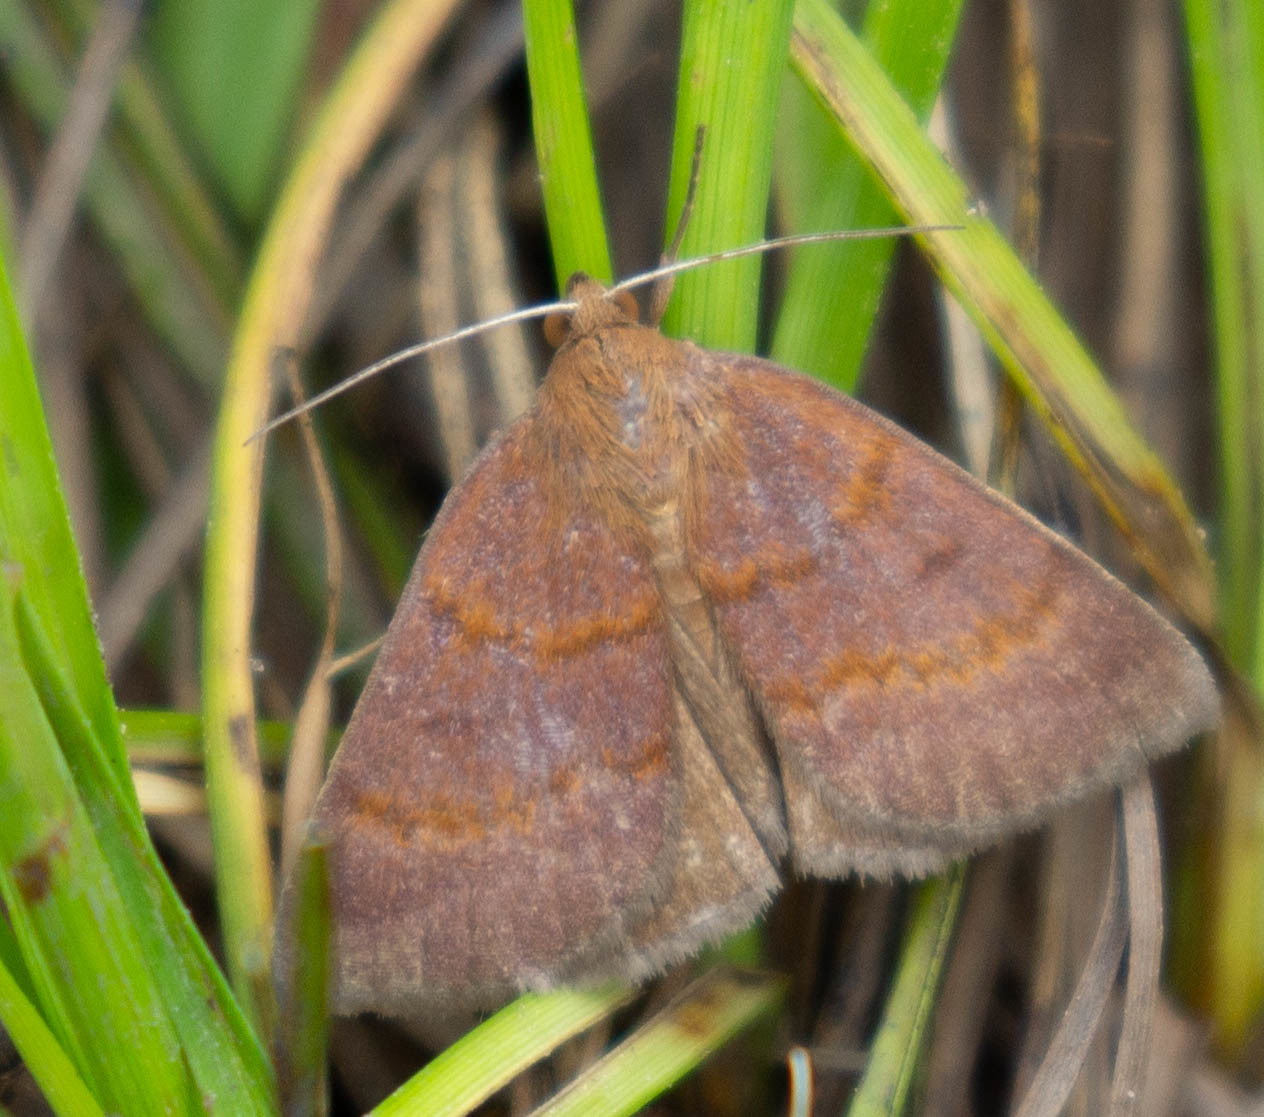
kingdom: Animalia
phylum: Arthropoda
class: Insecta
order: Lepidoptera
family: Erebidae
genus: Argyrostrotis
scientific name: Argyrostrotis deleta
